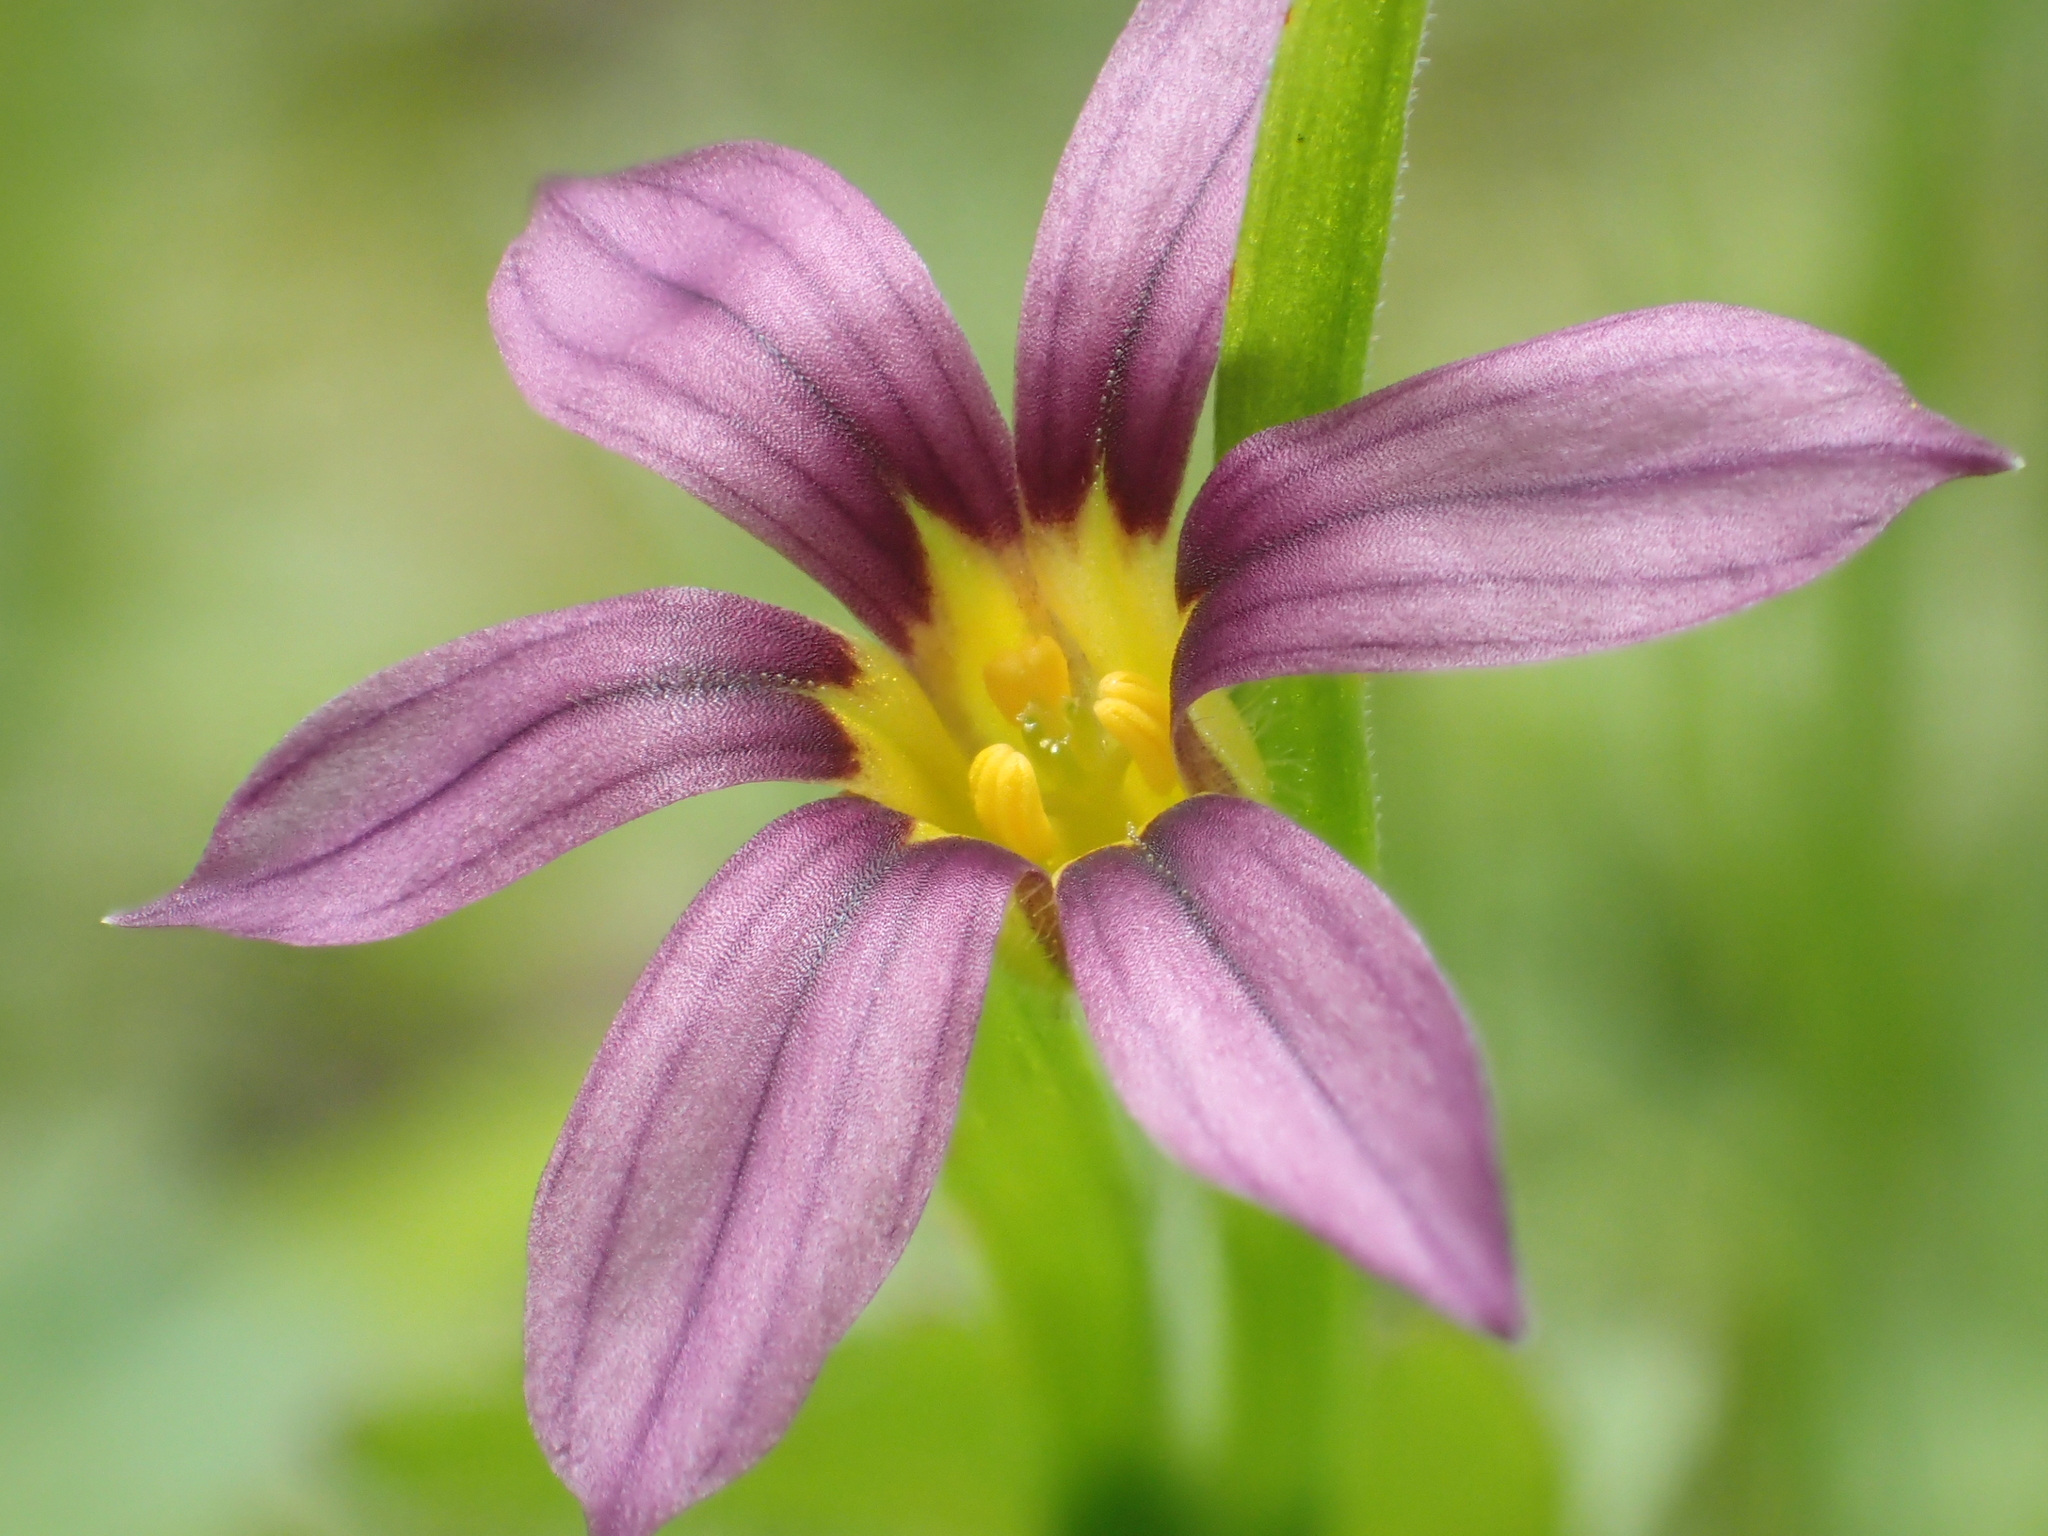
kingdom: Plantae
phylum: Tracheophyta
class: Liliopsida
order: Asparagales
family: Iridaceae
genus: Sisyrinchium
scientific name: Sisyrinchium atlanticum
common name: Eastern blue-eyed-grass
